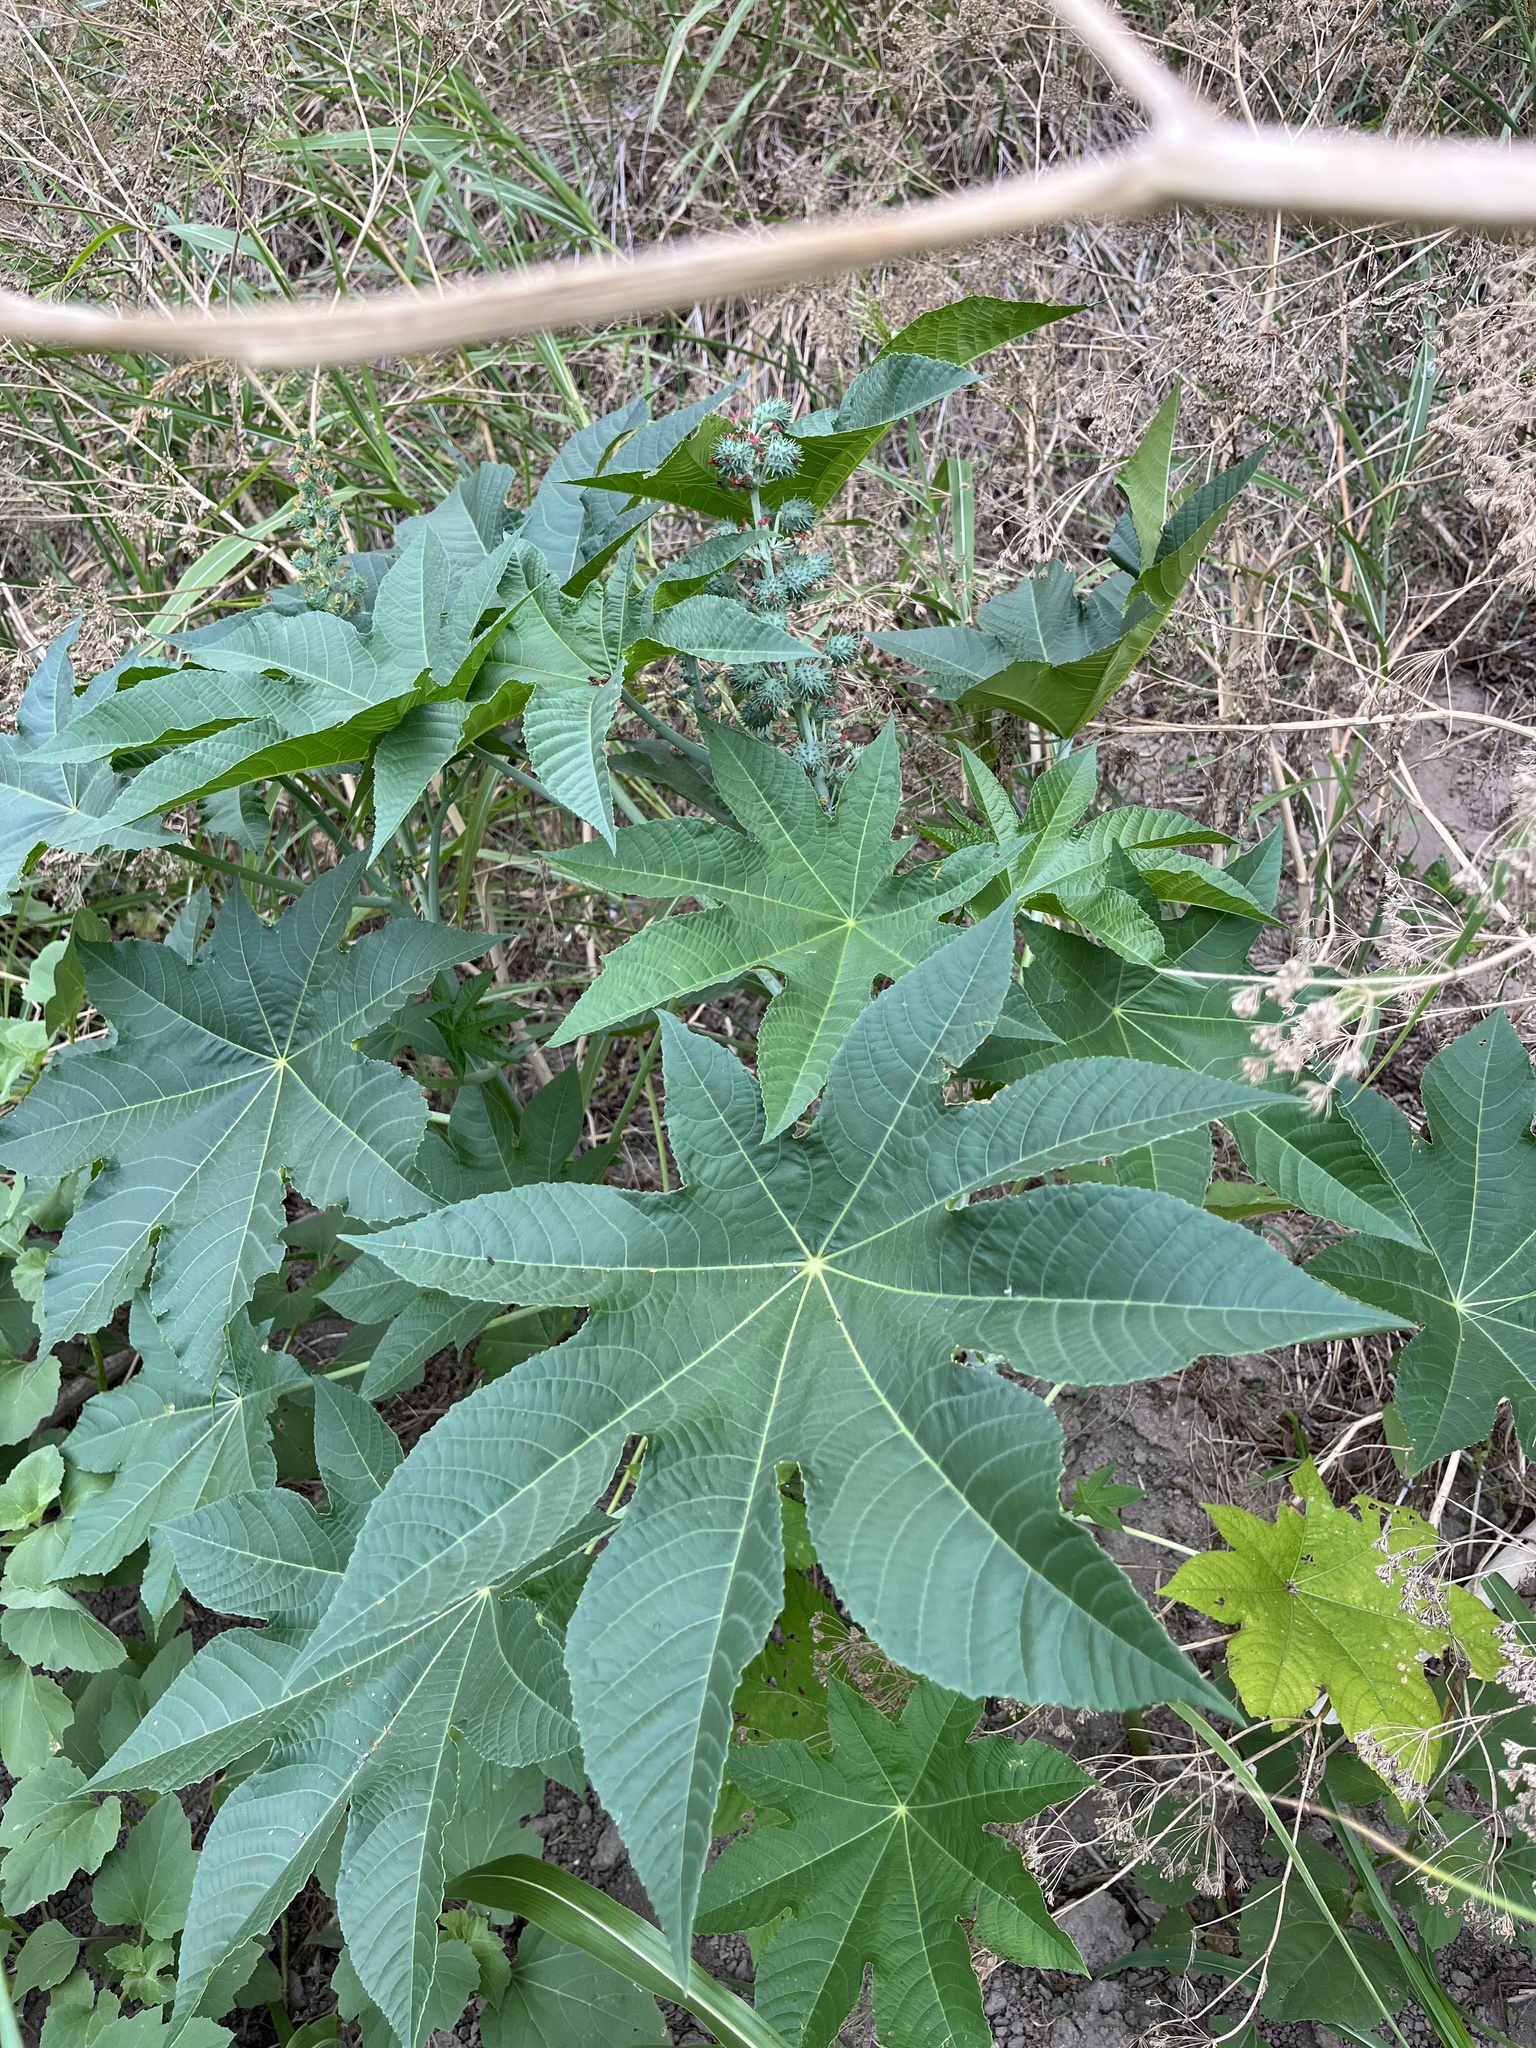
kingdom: Plantae
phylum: Tracheophyta
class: Magnoliopsida
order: Malpighiales
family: Euphorbiaceae
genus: Ricinus
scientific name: Ricinus communis
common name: Castor-oil-plant
